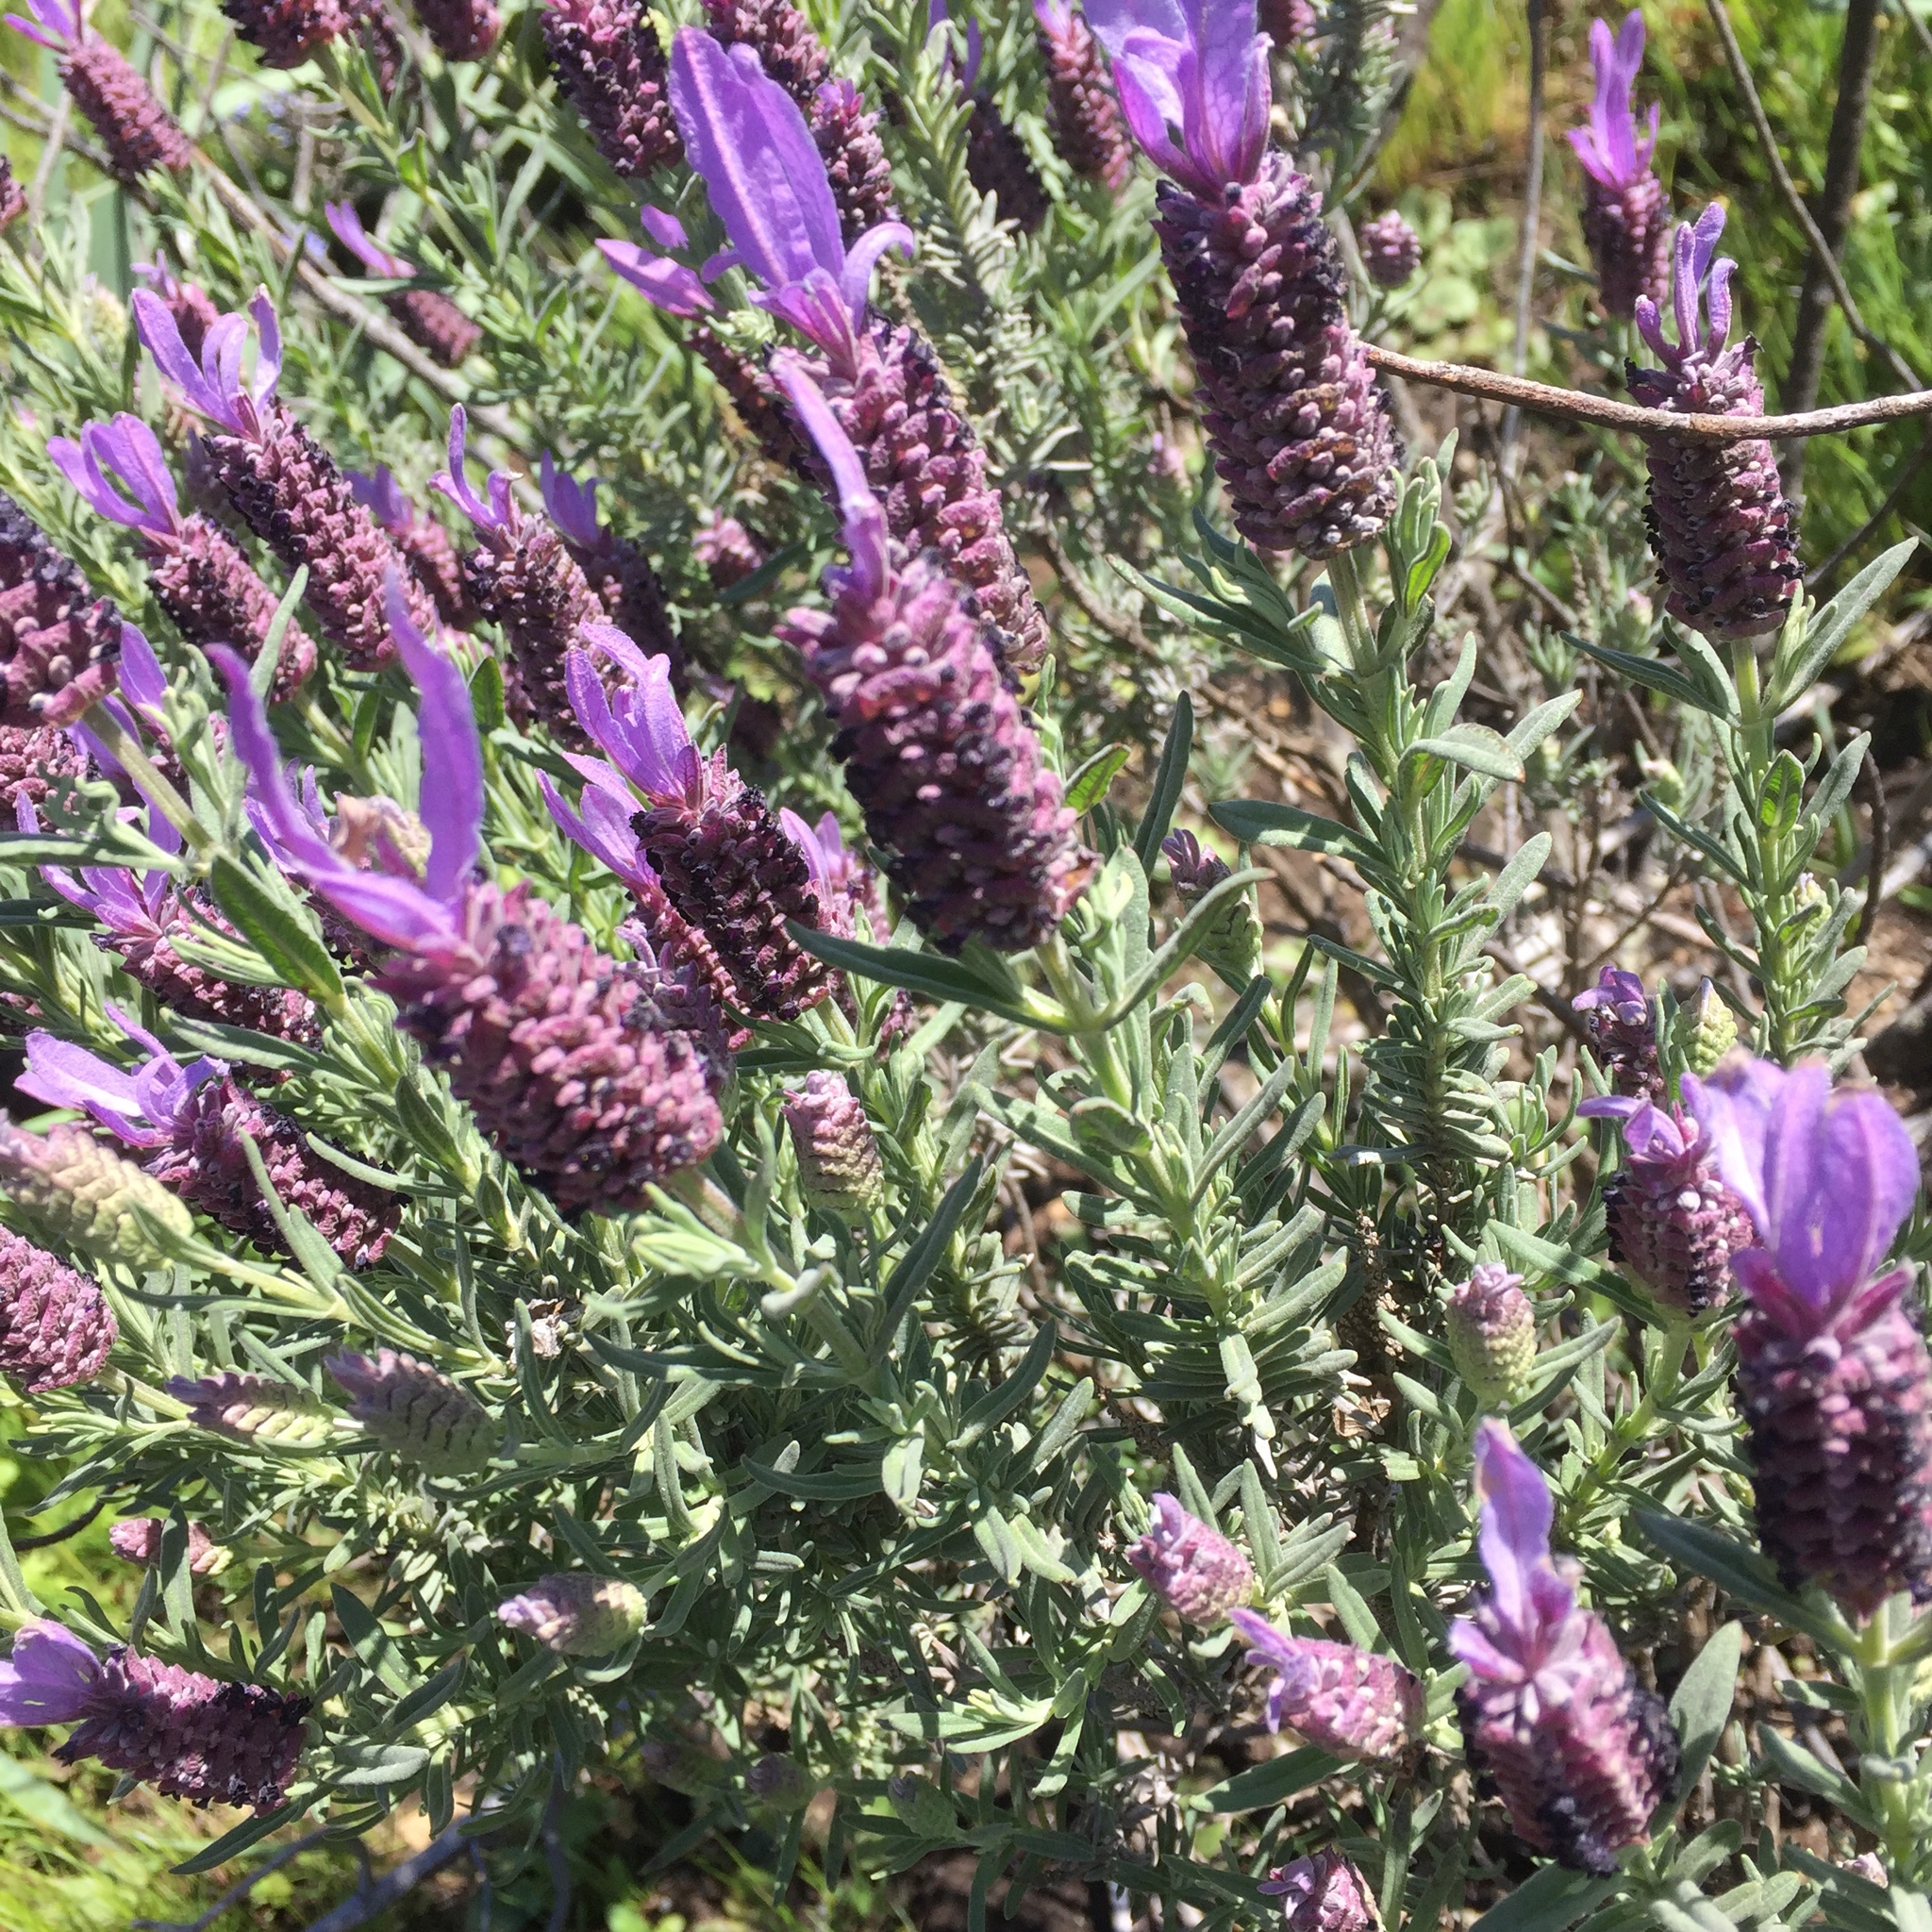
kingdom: Plantae
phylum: Tracheophyta
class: Magnoliopsida
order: Lamiales
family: Lamiaceae
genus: Lavandula
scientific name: Lavandula stoechas
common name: French lavender
